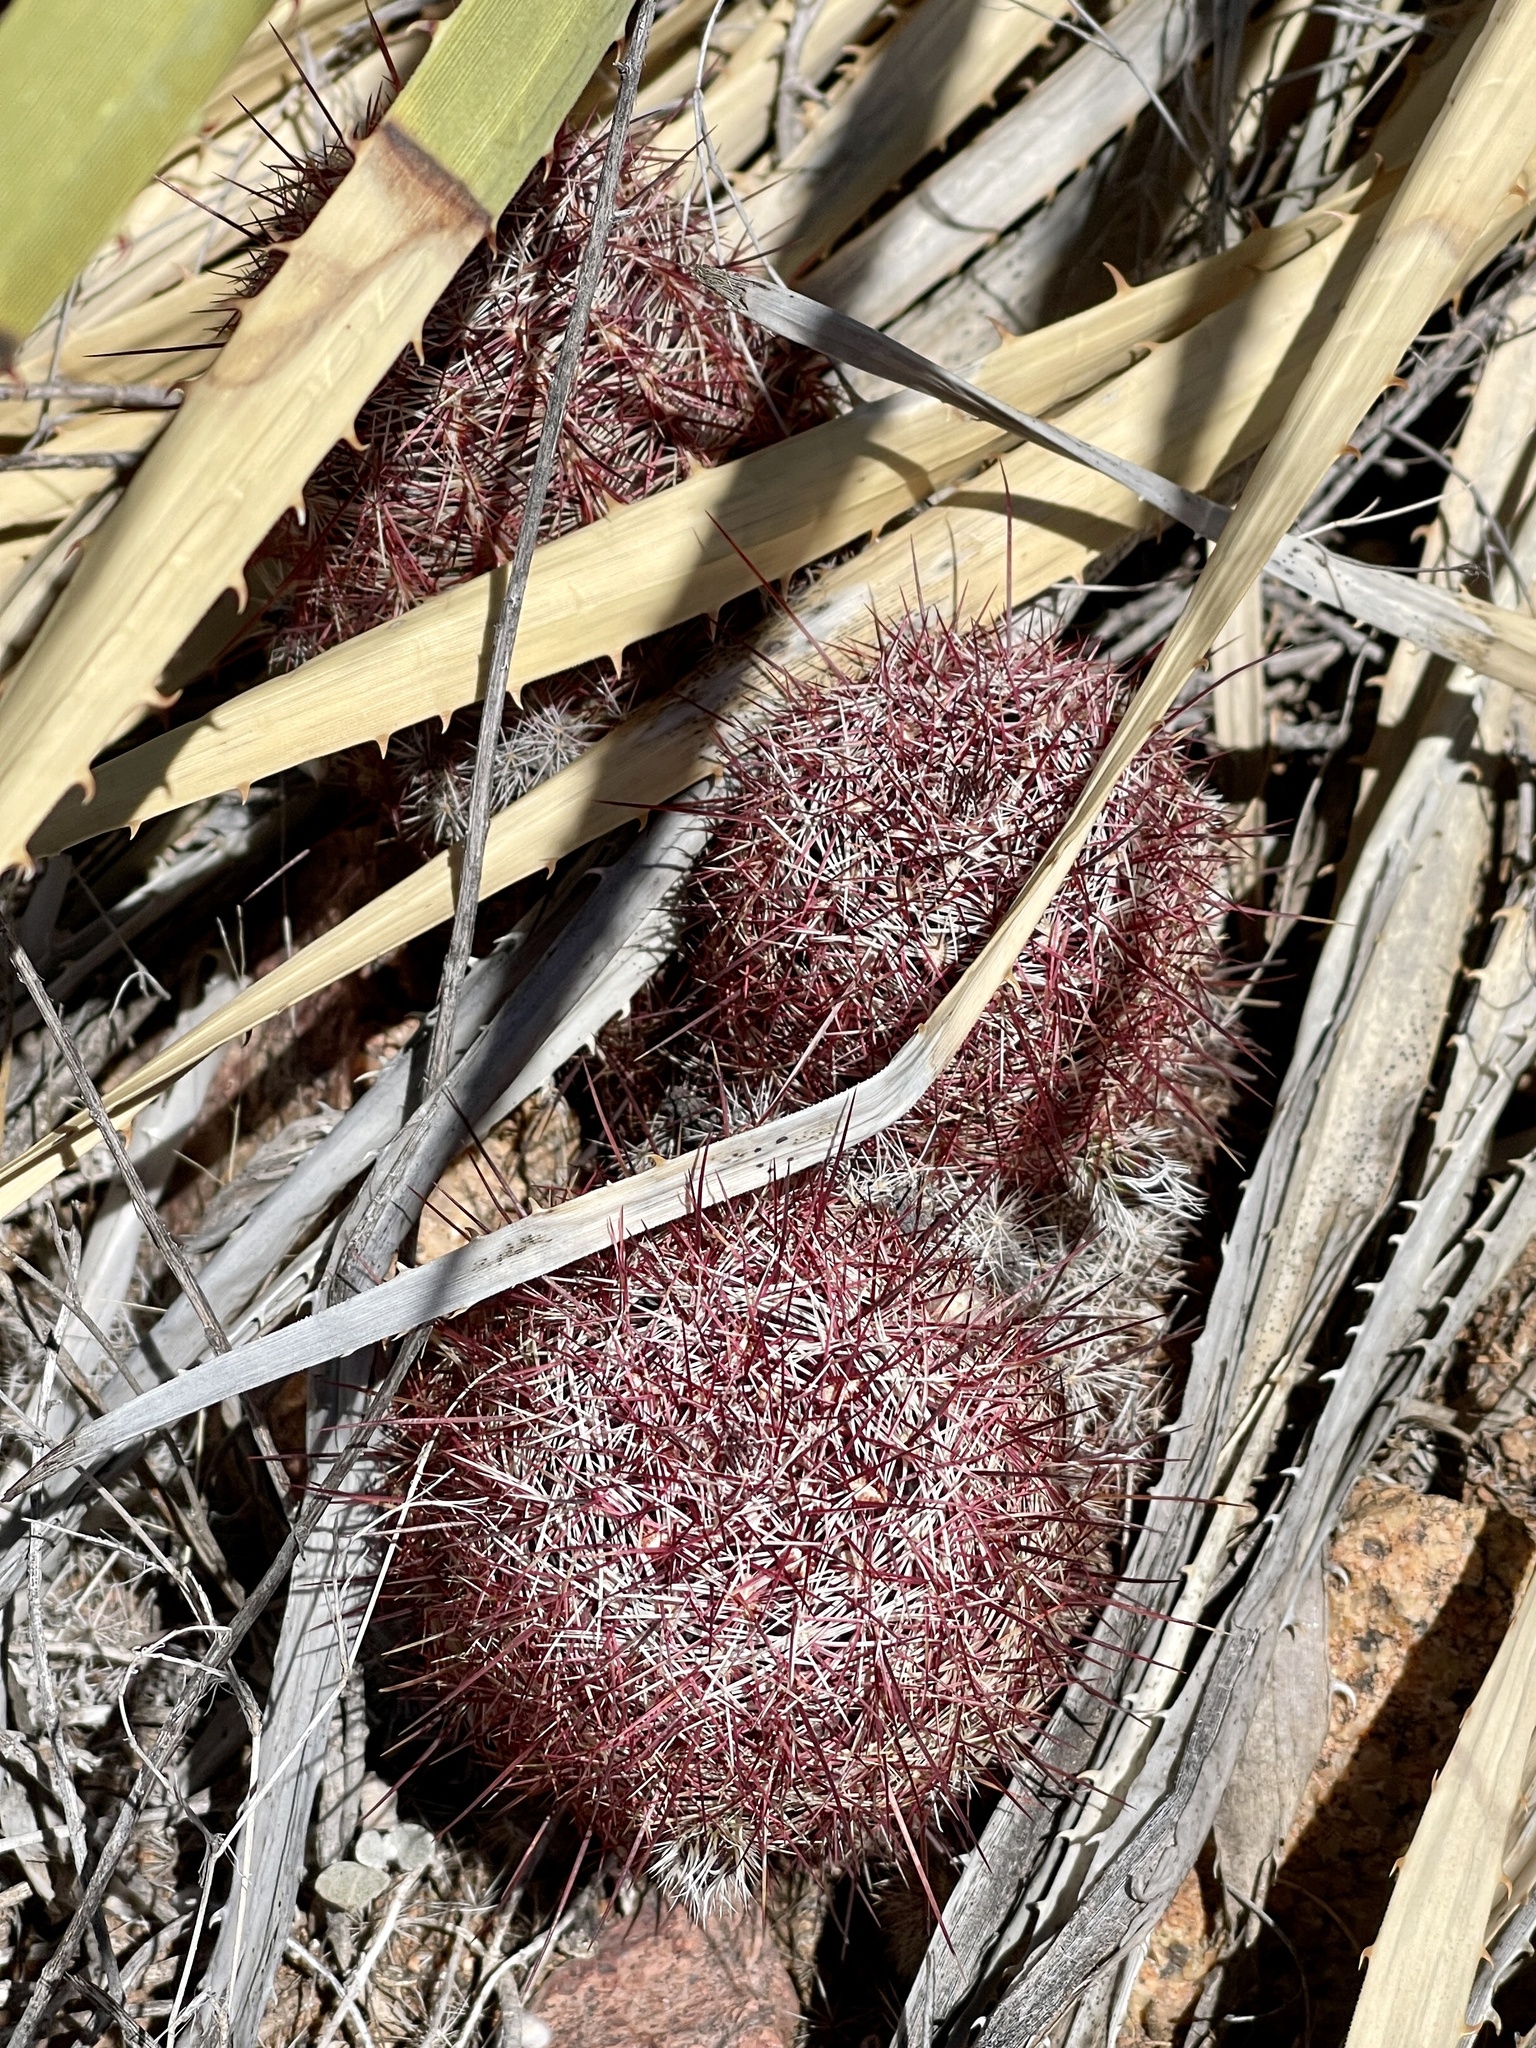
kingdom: Plantae
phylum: Tracheophyta
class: Magnoliopsida
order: Caryophyllales
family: Cactaceae
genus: Echinocereus
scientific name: Echinocereus viridiflorus
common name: Nylon hedgehog cactus
